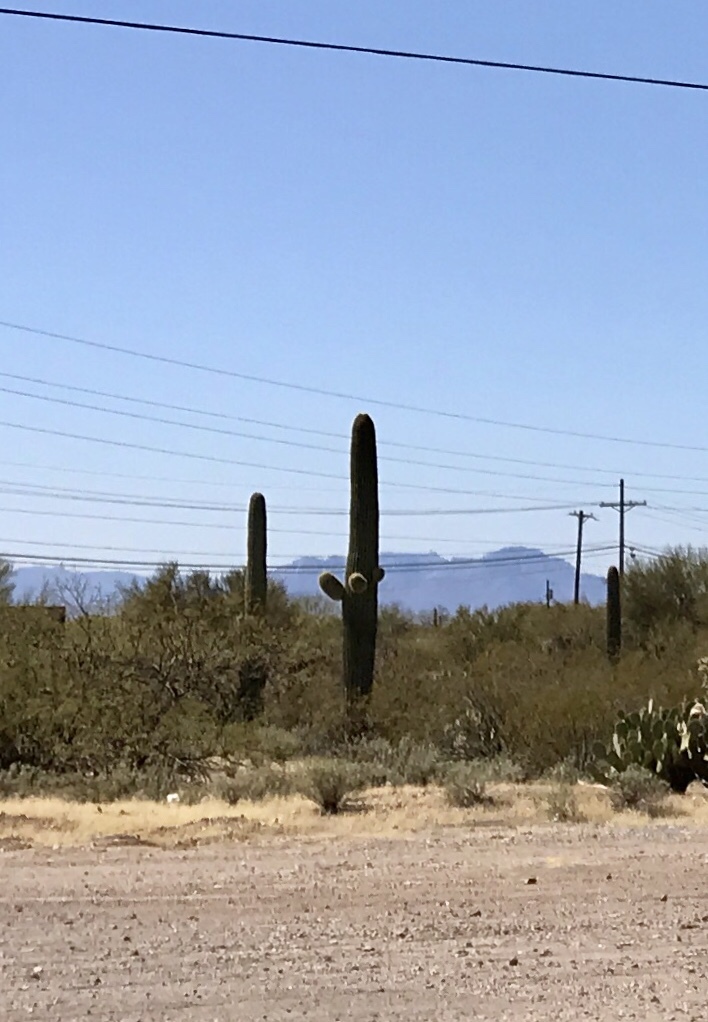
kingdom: Plantae
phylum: Tracheophyta
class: Magnoliopsida
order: Caryophyllales
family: Cactaceae
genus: Carnegiea
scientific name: Carnegiea gigantea
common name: Saguaro
